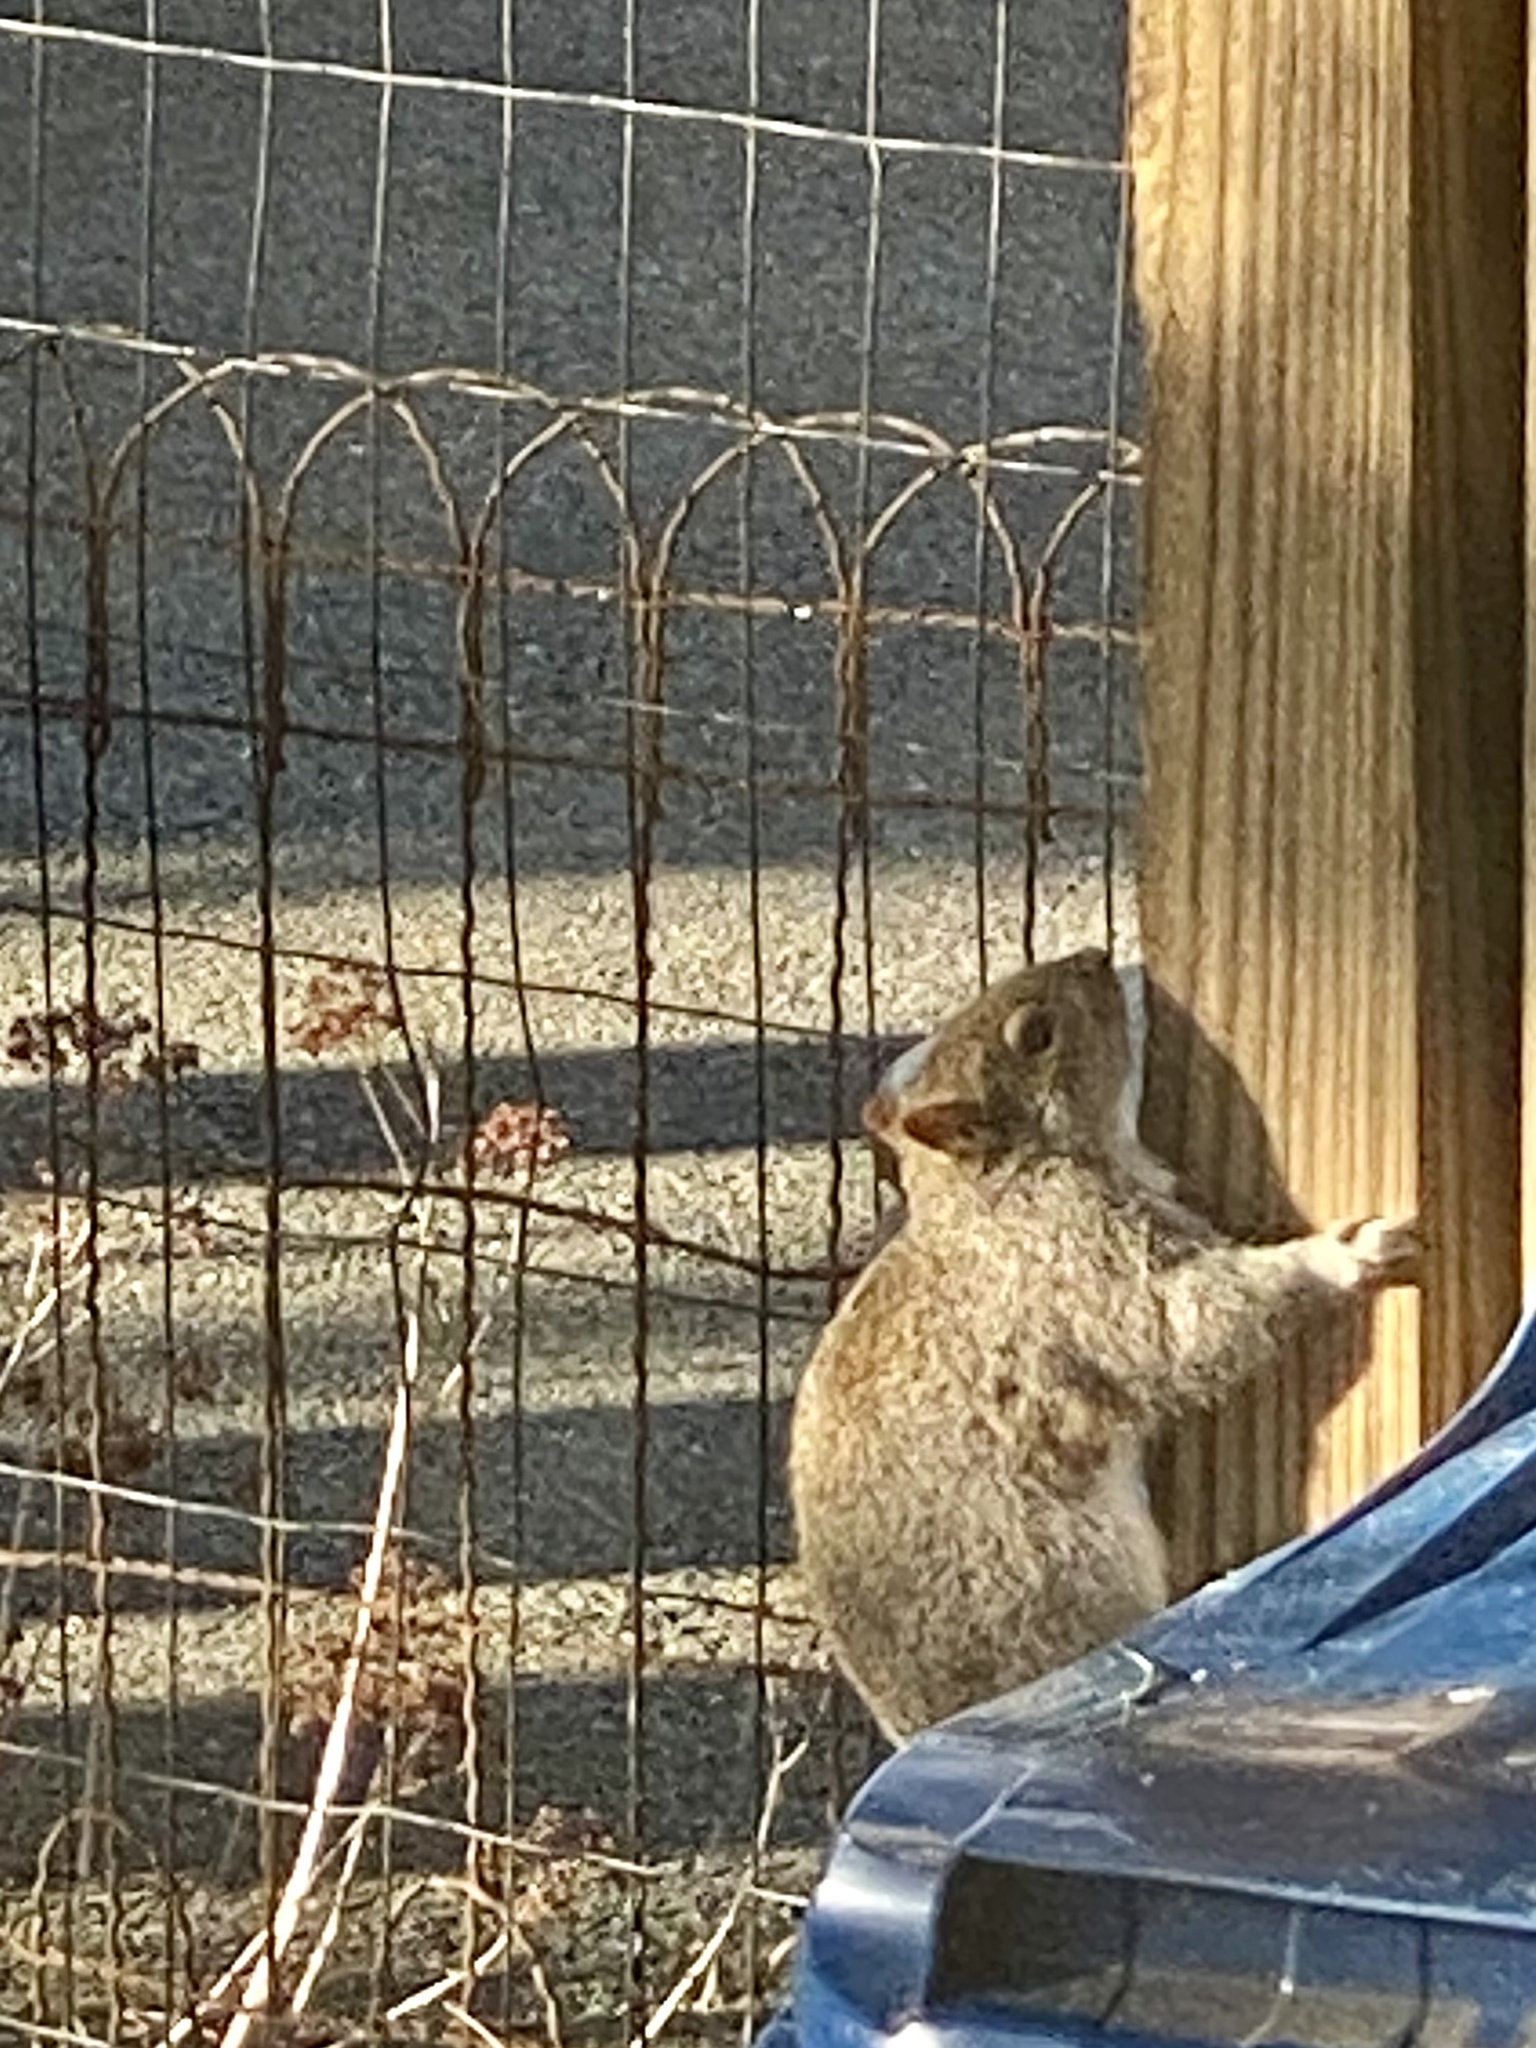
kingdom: Animalia
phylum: Chordata
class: Mammalia
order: Rodentia
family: Sciuridae
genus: Sciurus
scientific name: Sciurus carolinensis
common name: Eastern gray squirrel
